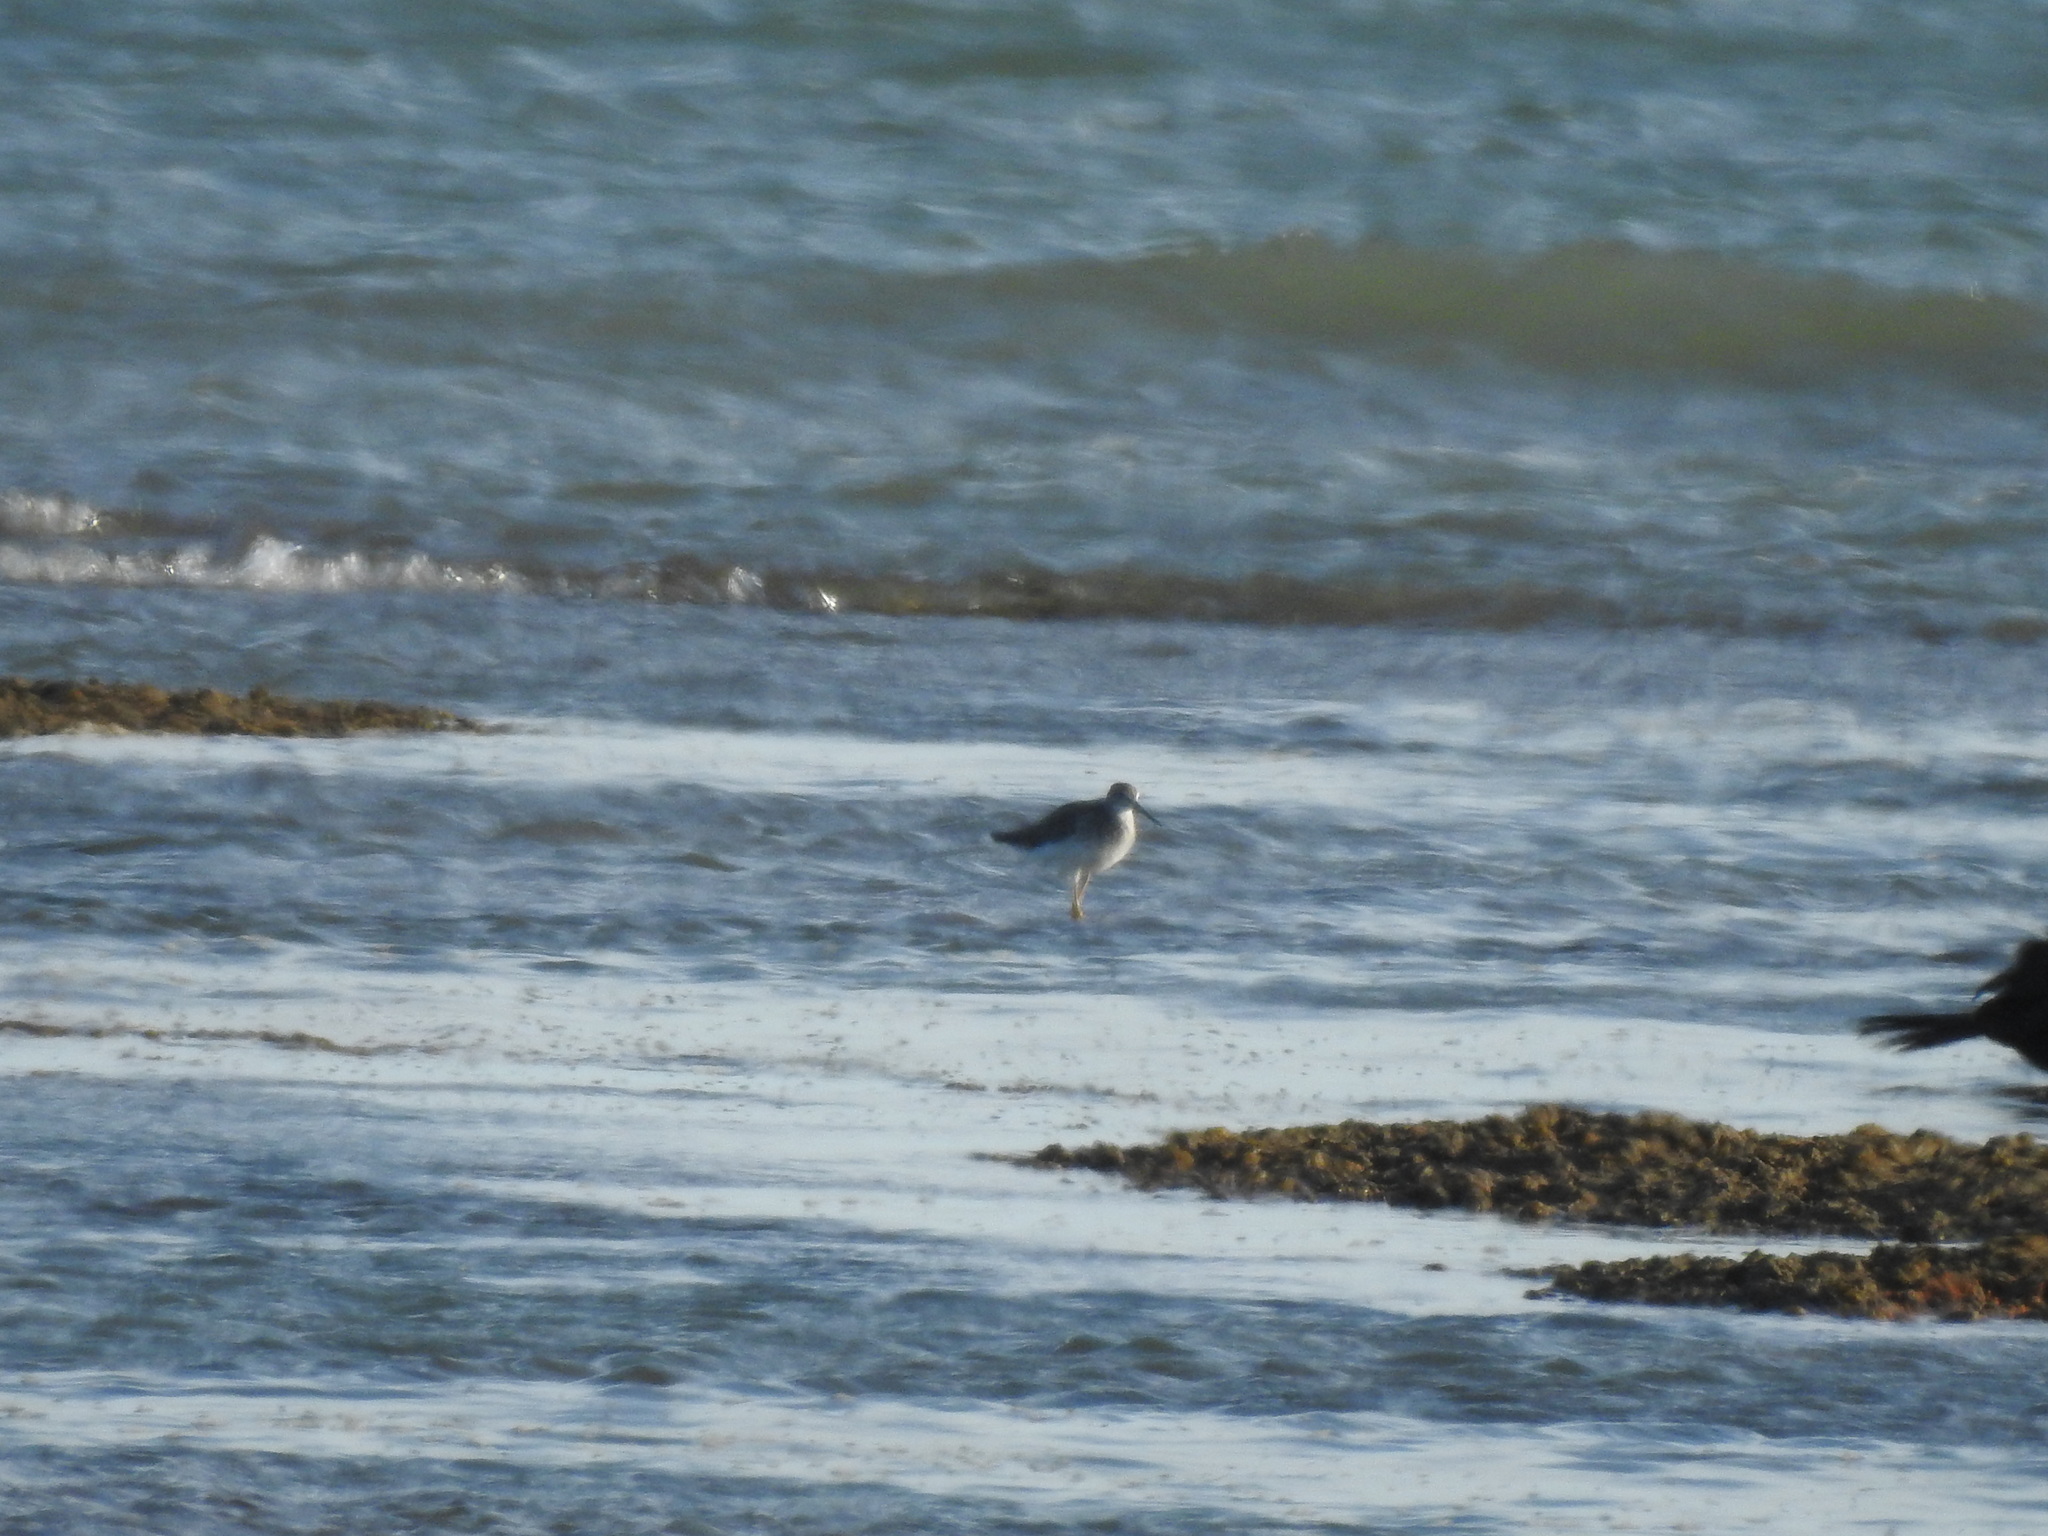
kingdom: Animalia
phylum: Chordata
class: Aves
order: Charadriiformes
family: Scolopacidae
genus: Tringa
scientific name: Tringa melanoleuca
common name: Greater yellowlegs
